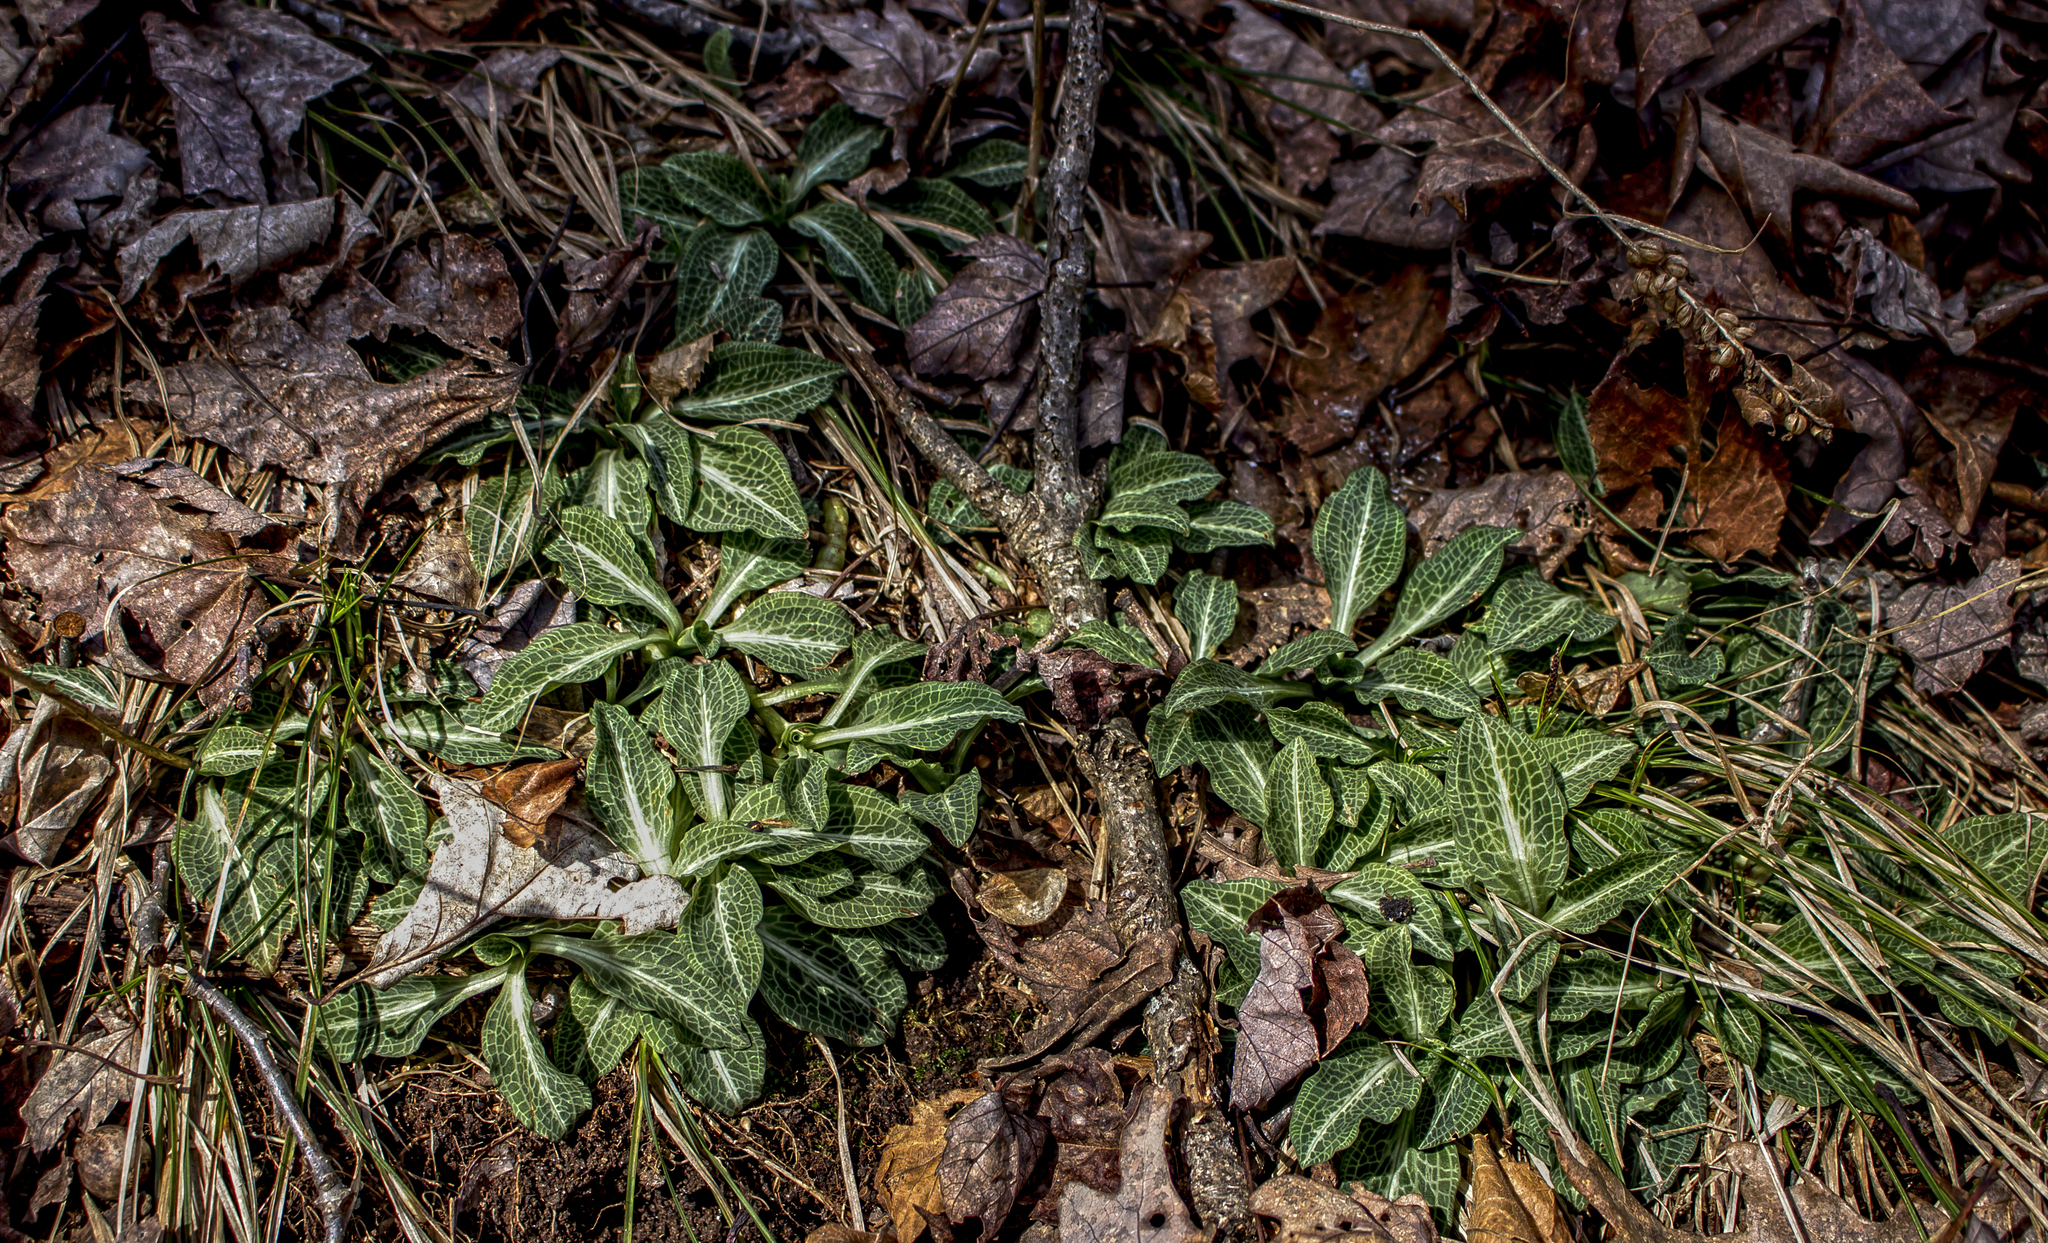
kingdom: Plantae
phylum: Tracheophyta
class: Liliopsida
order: Asparagales
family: Orchidaceae
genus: Goodyera
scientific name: Goodyera pubescens
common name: Downy rattlesnake-plantain
